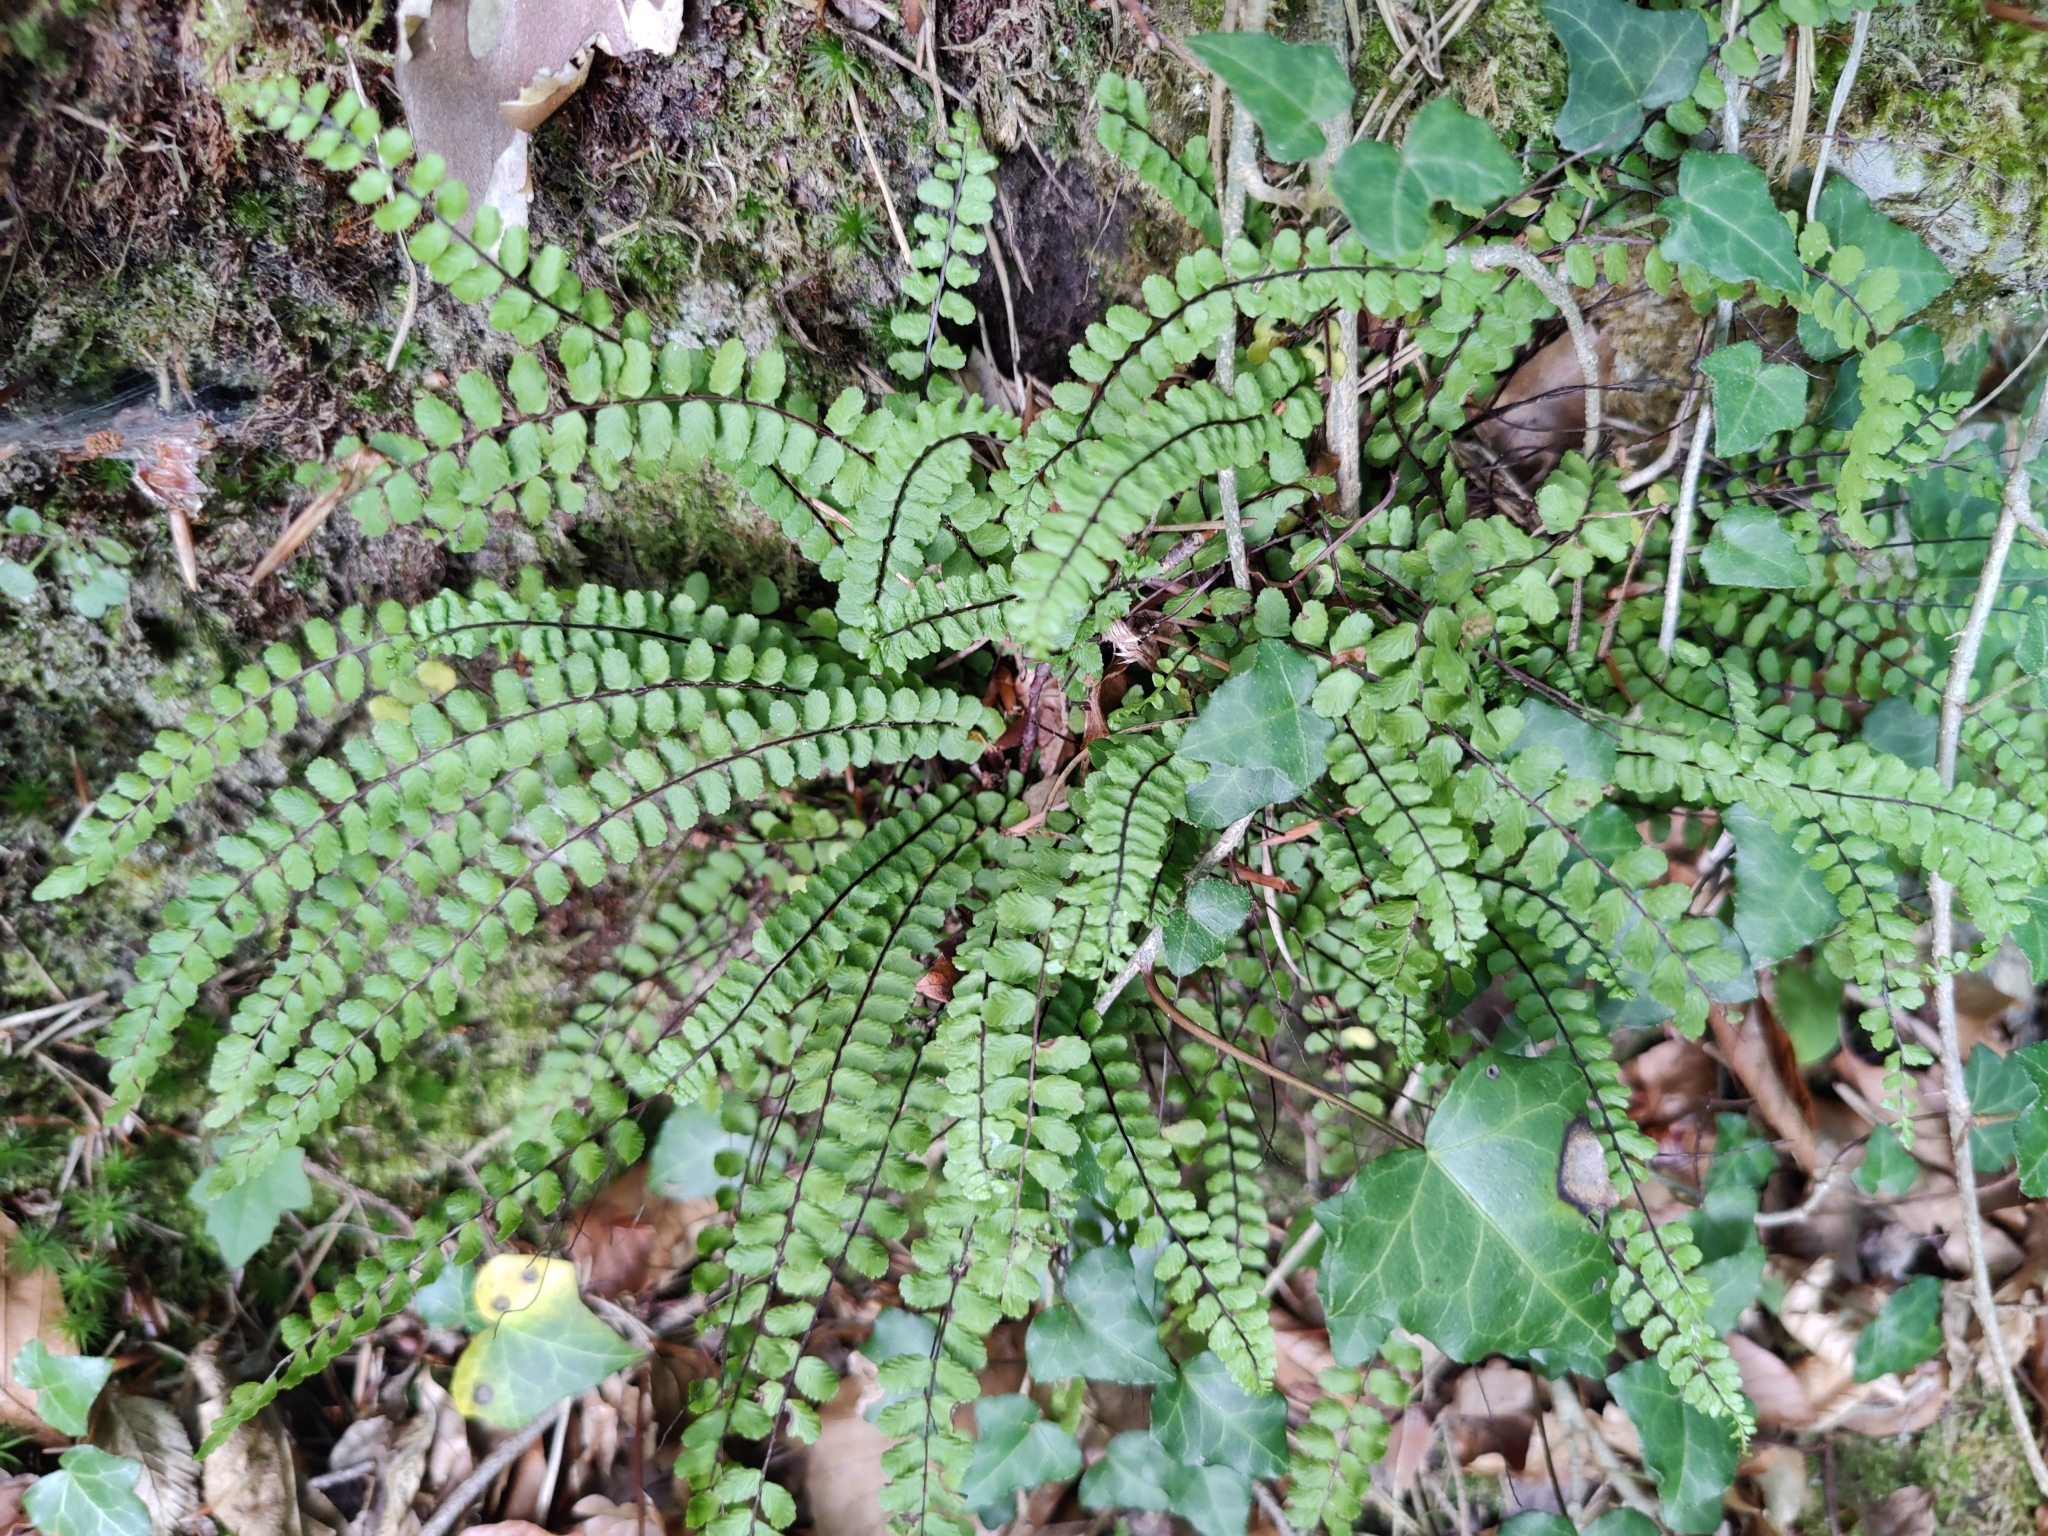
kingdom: Plantae
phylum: Tracheophyta
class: Polypodiopsida
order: Polypodiales
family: Aspleniaceae
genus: Asplenium
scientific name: Asplenium trichomanes
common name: Maidenhair spleenwort
